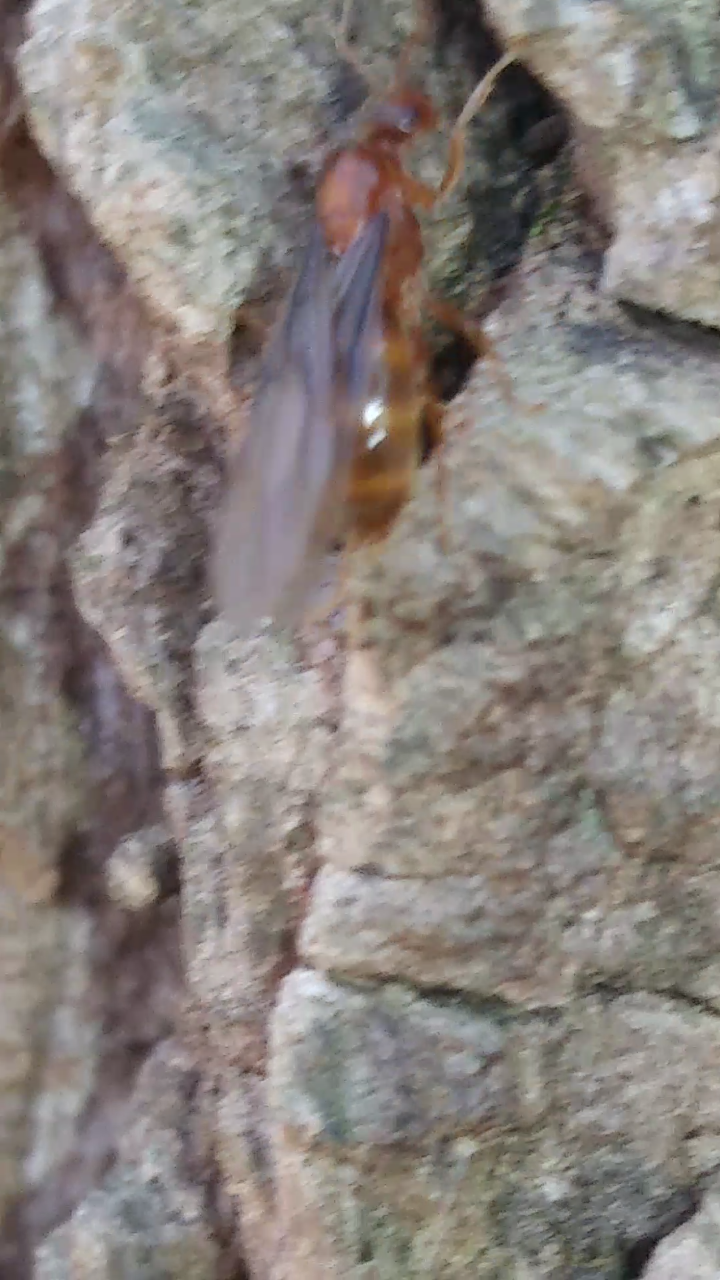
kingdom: Animalia
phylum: Arthropoda
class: Insecta
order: Hymenoptera
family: Formicidae
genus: Prenolepis
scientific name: Prenolepis imparis
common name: Small honey ant
